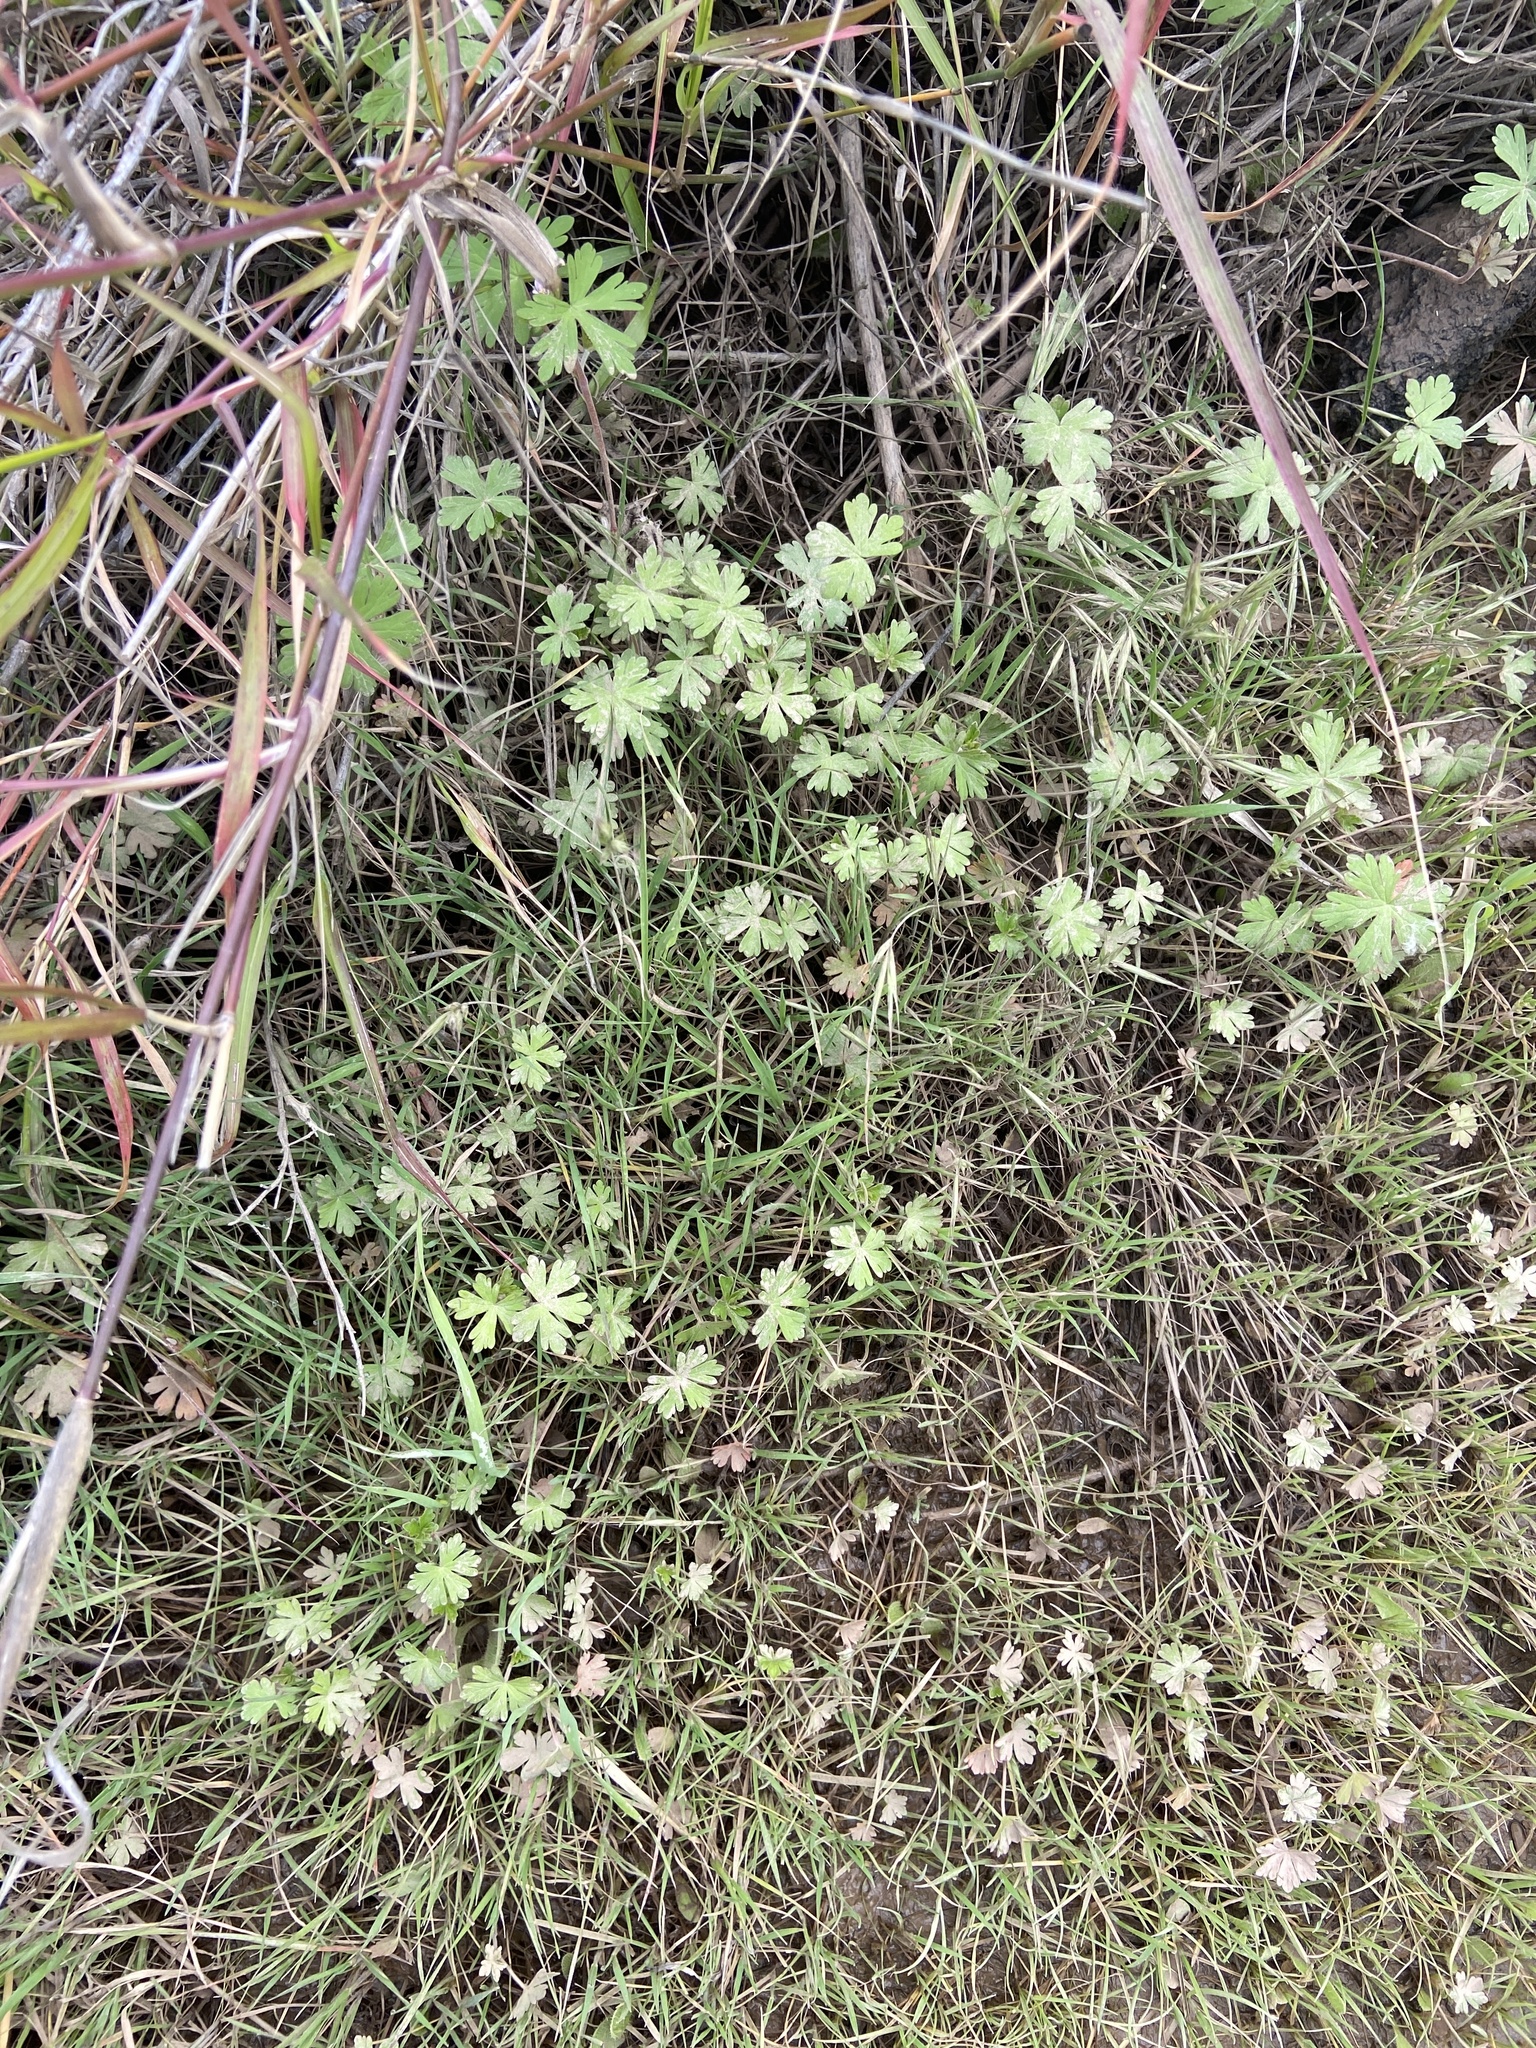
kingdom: Plantae
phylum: Tracheophyta
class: Magnoliopsida
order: Geraniales
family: Geraniaceae
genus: Geranium
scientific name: Geranium
